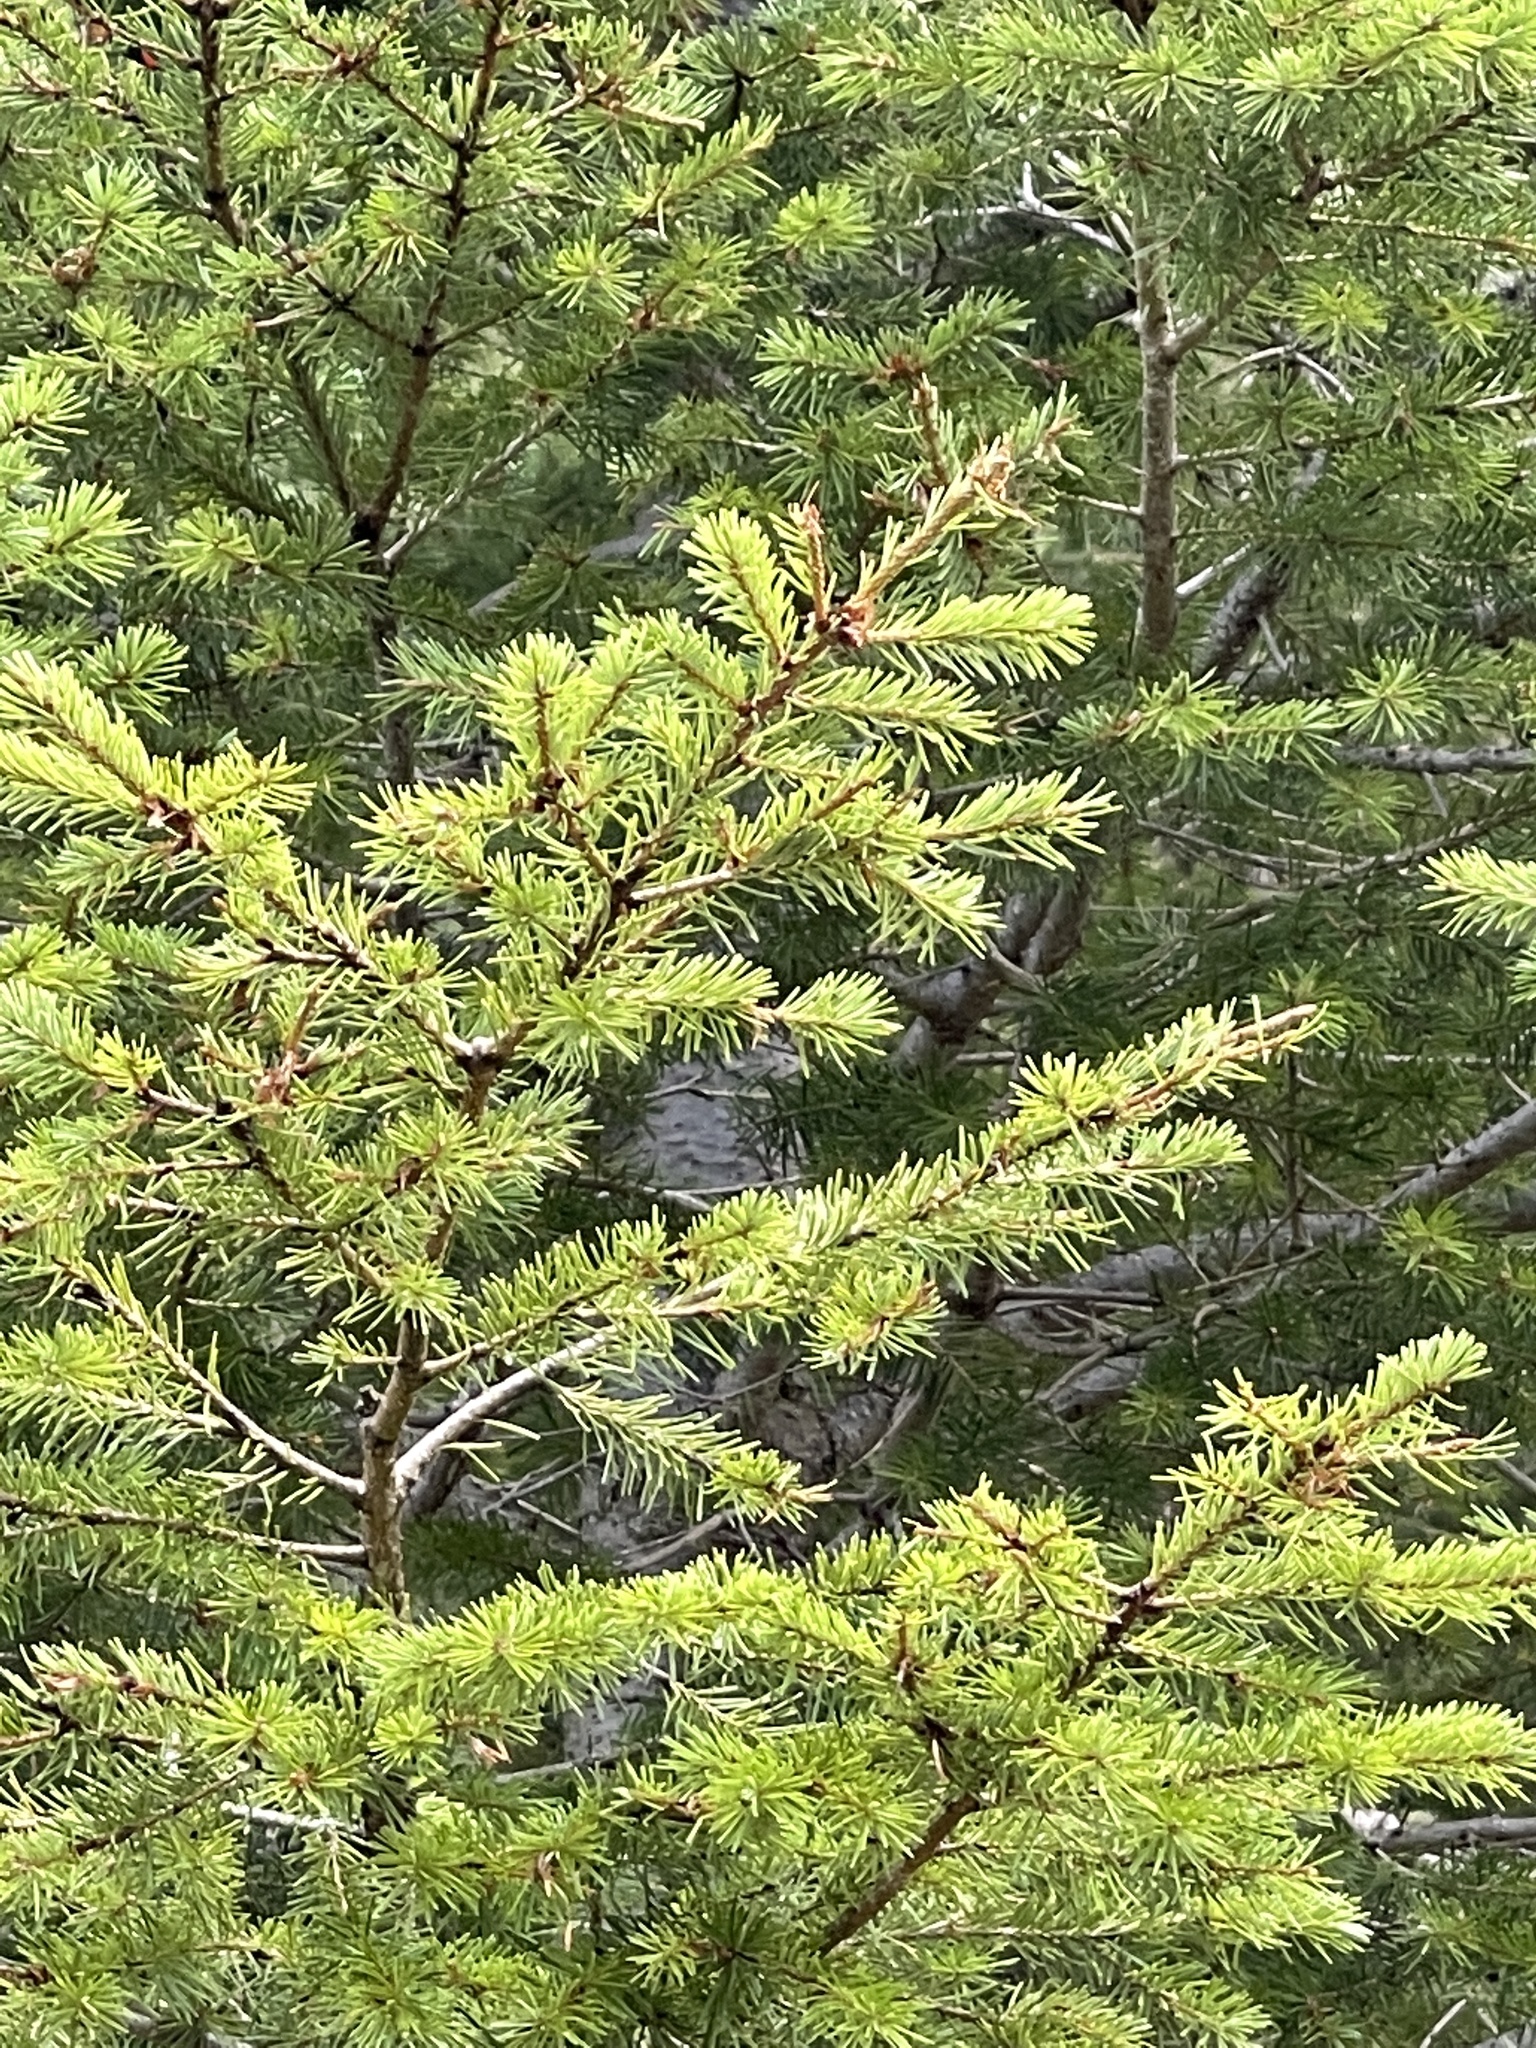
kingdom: Plantae
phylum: Tracheophyta
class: Pinopsida
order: Pinales
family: Pinaceae
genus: Pseudotsuga
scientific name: Pseudotsuga menziesii
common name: Douglas fir
